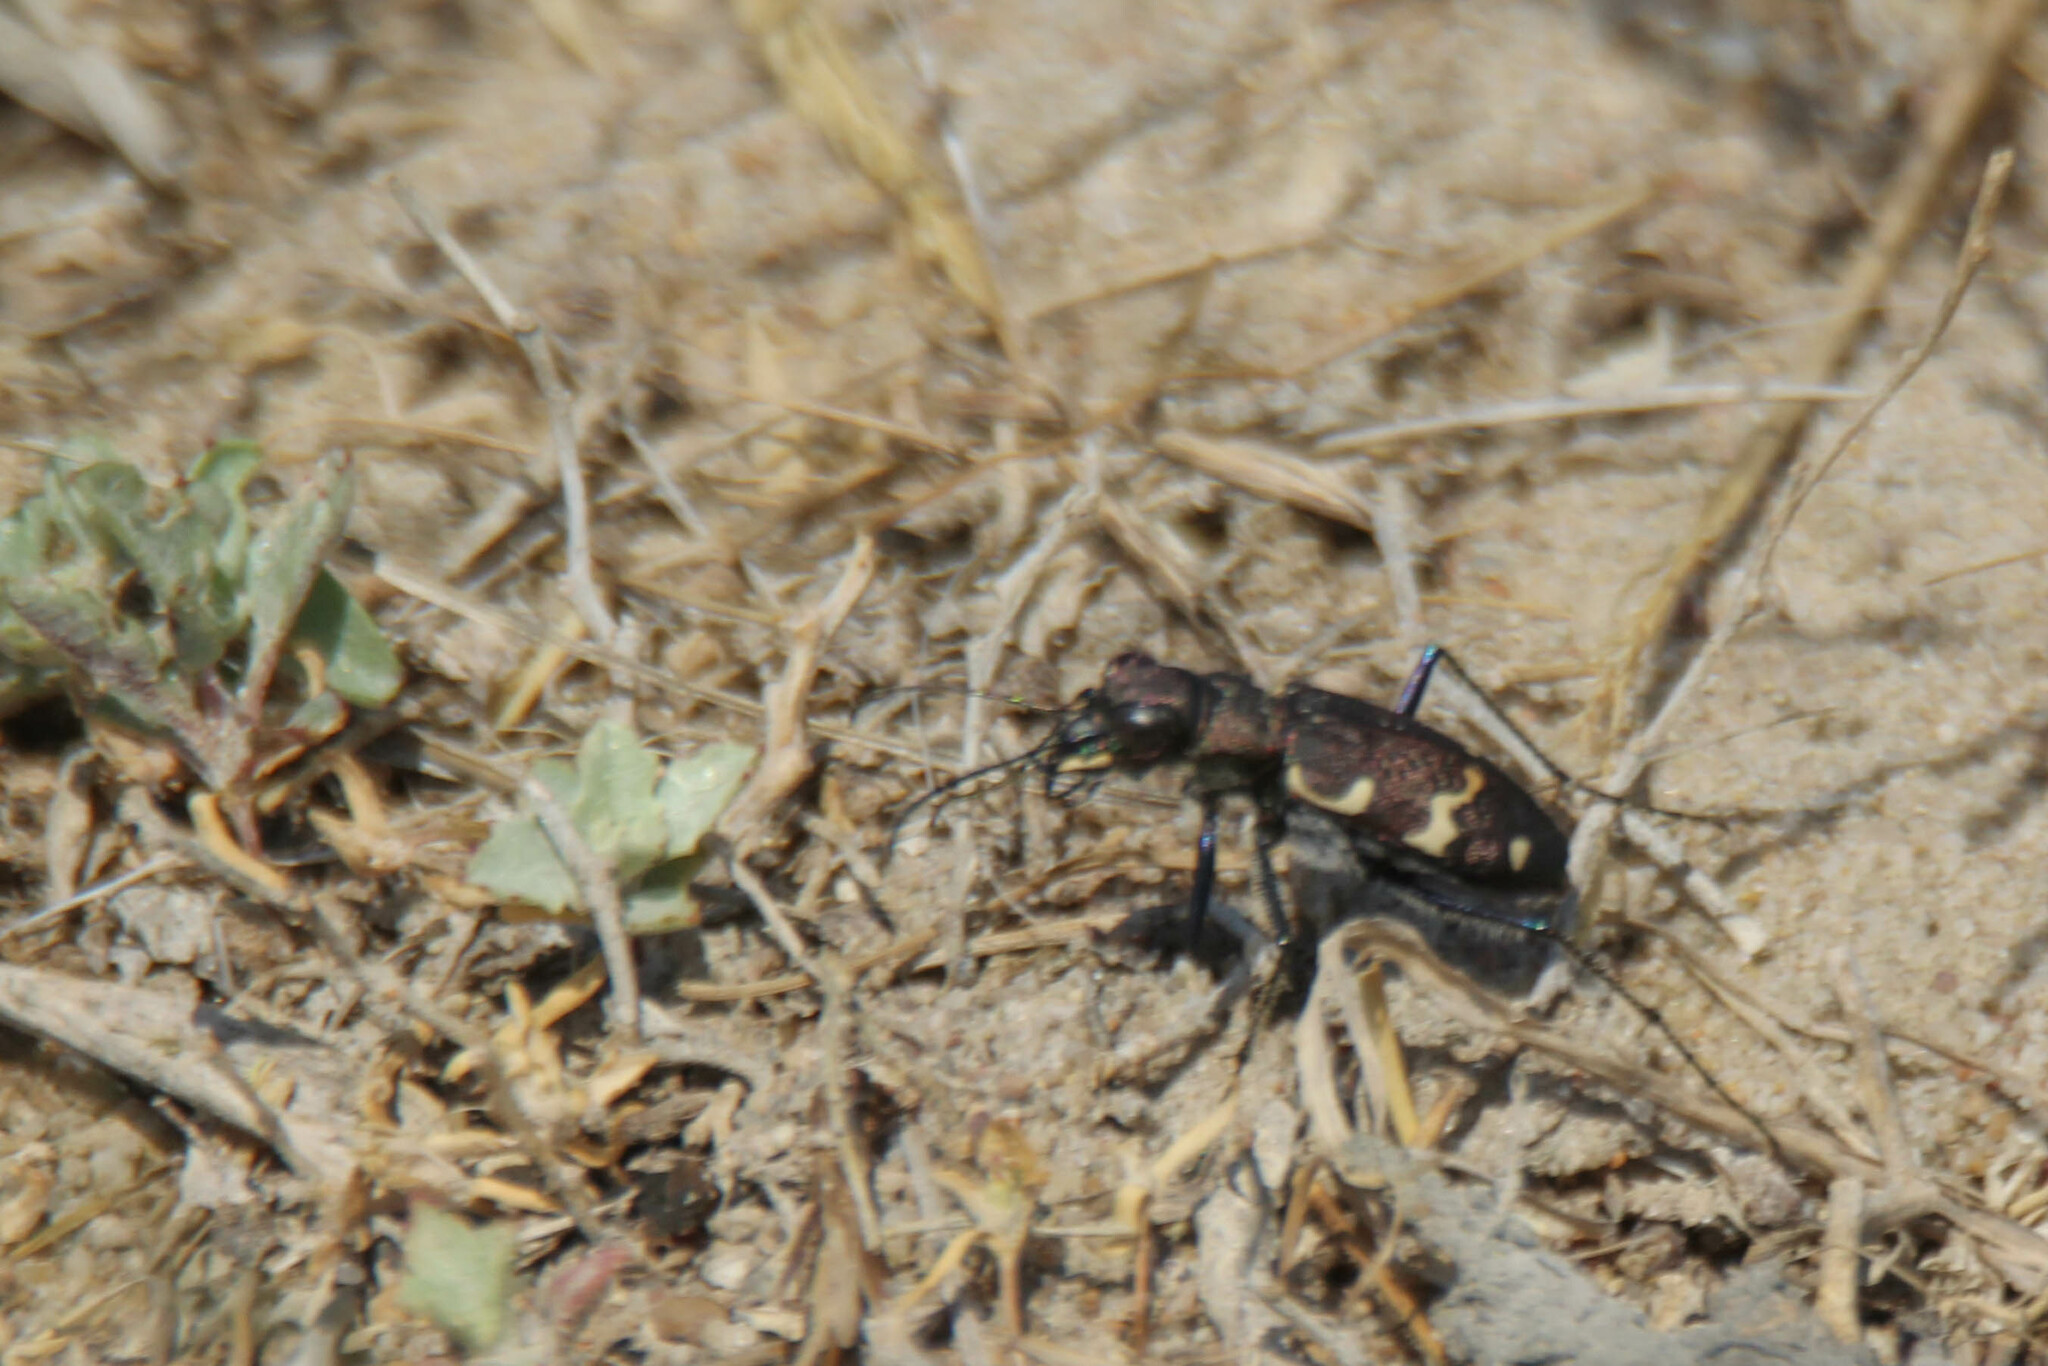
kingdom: Animalia
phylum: Arthropoda
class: Insecta
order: Coleoptera
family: Carabidae
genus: Cicindela
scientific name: Cicindela sylvatica
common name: Heath tiger beetle
